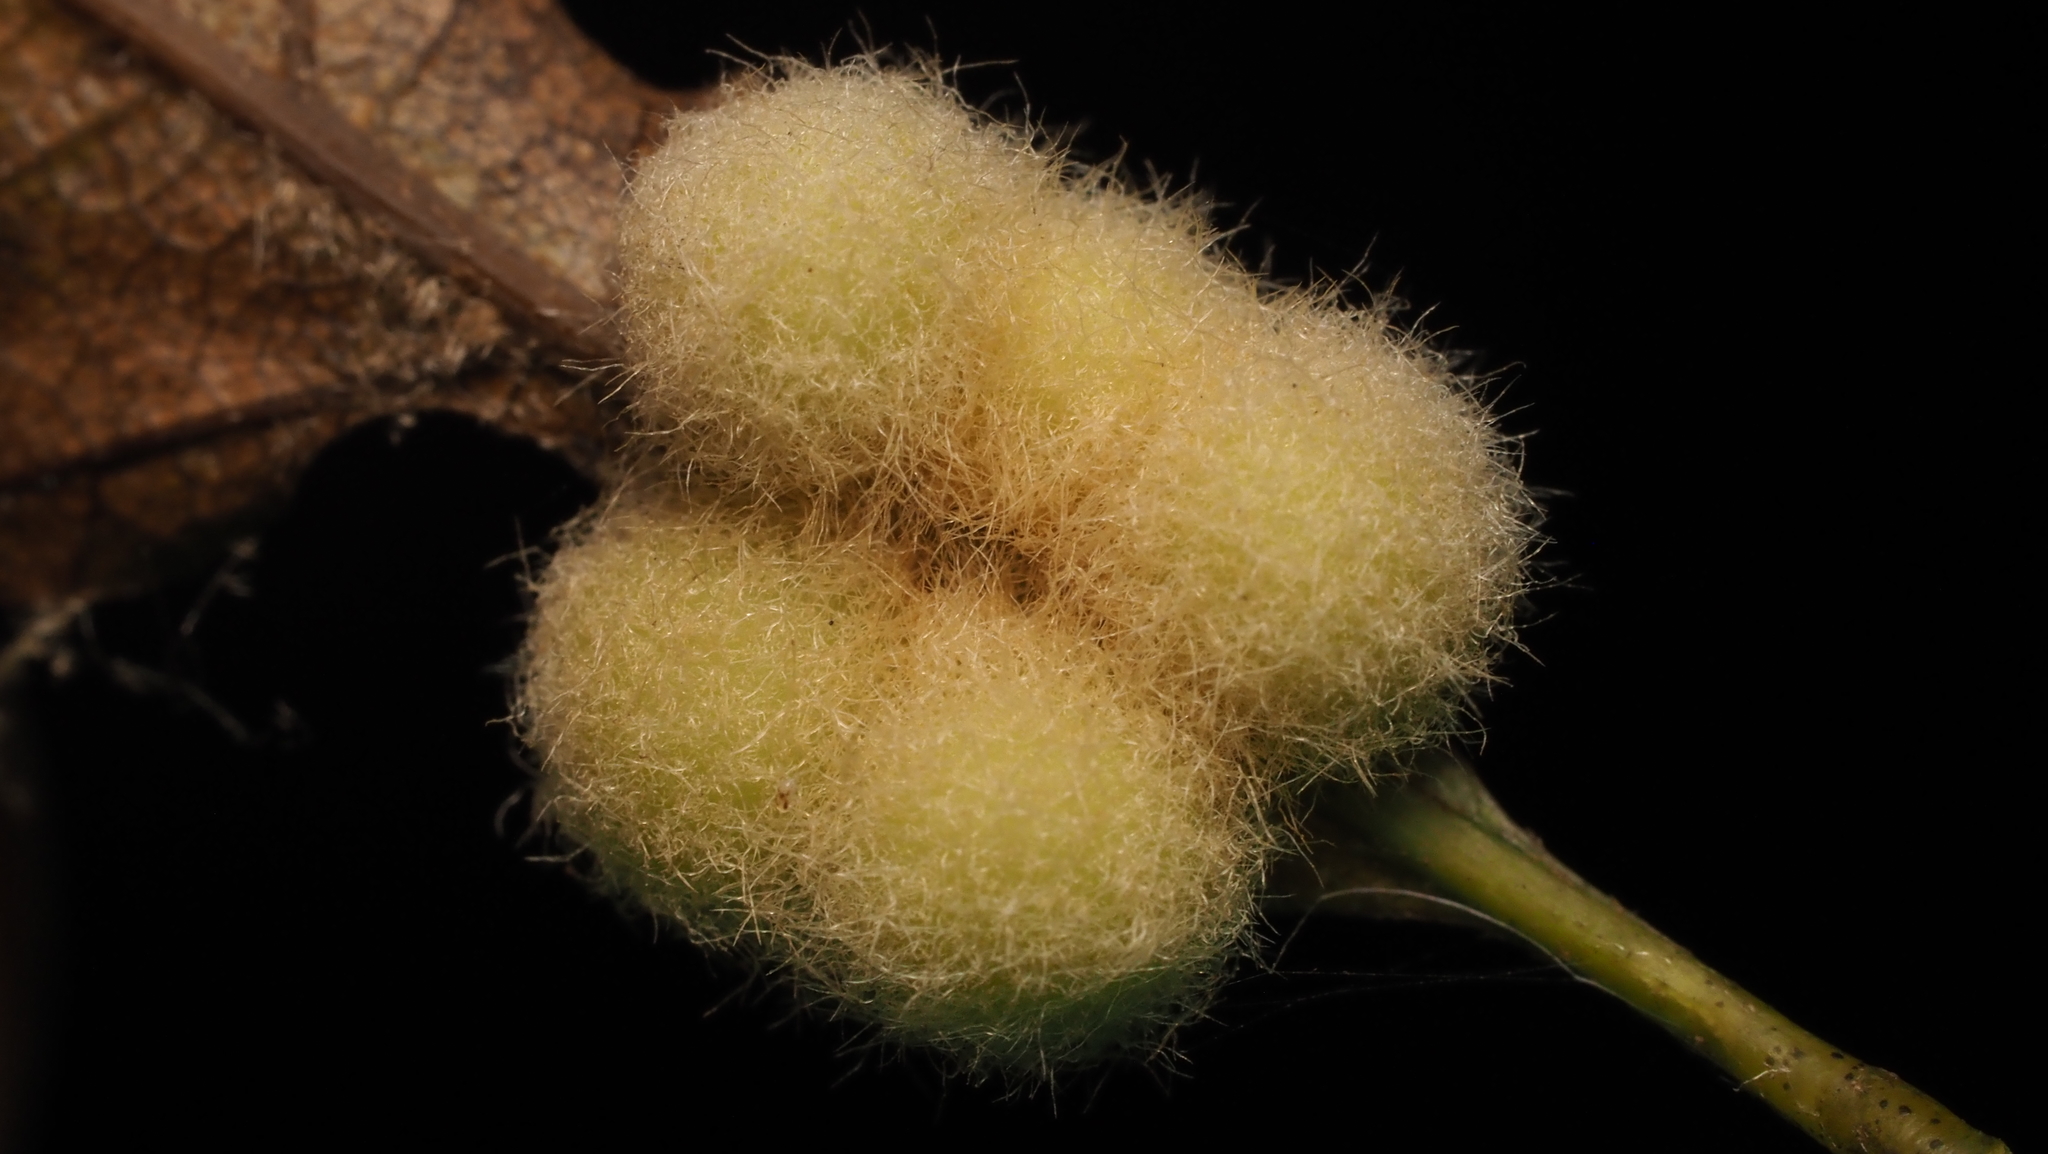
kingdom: Animalia
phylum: Arthropoda
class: Insecta
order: Hymenoptera
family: Cynipidae
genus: Callirhytis
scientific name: Callirhytis
